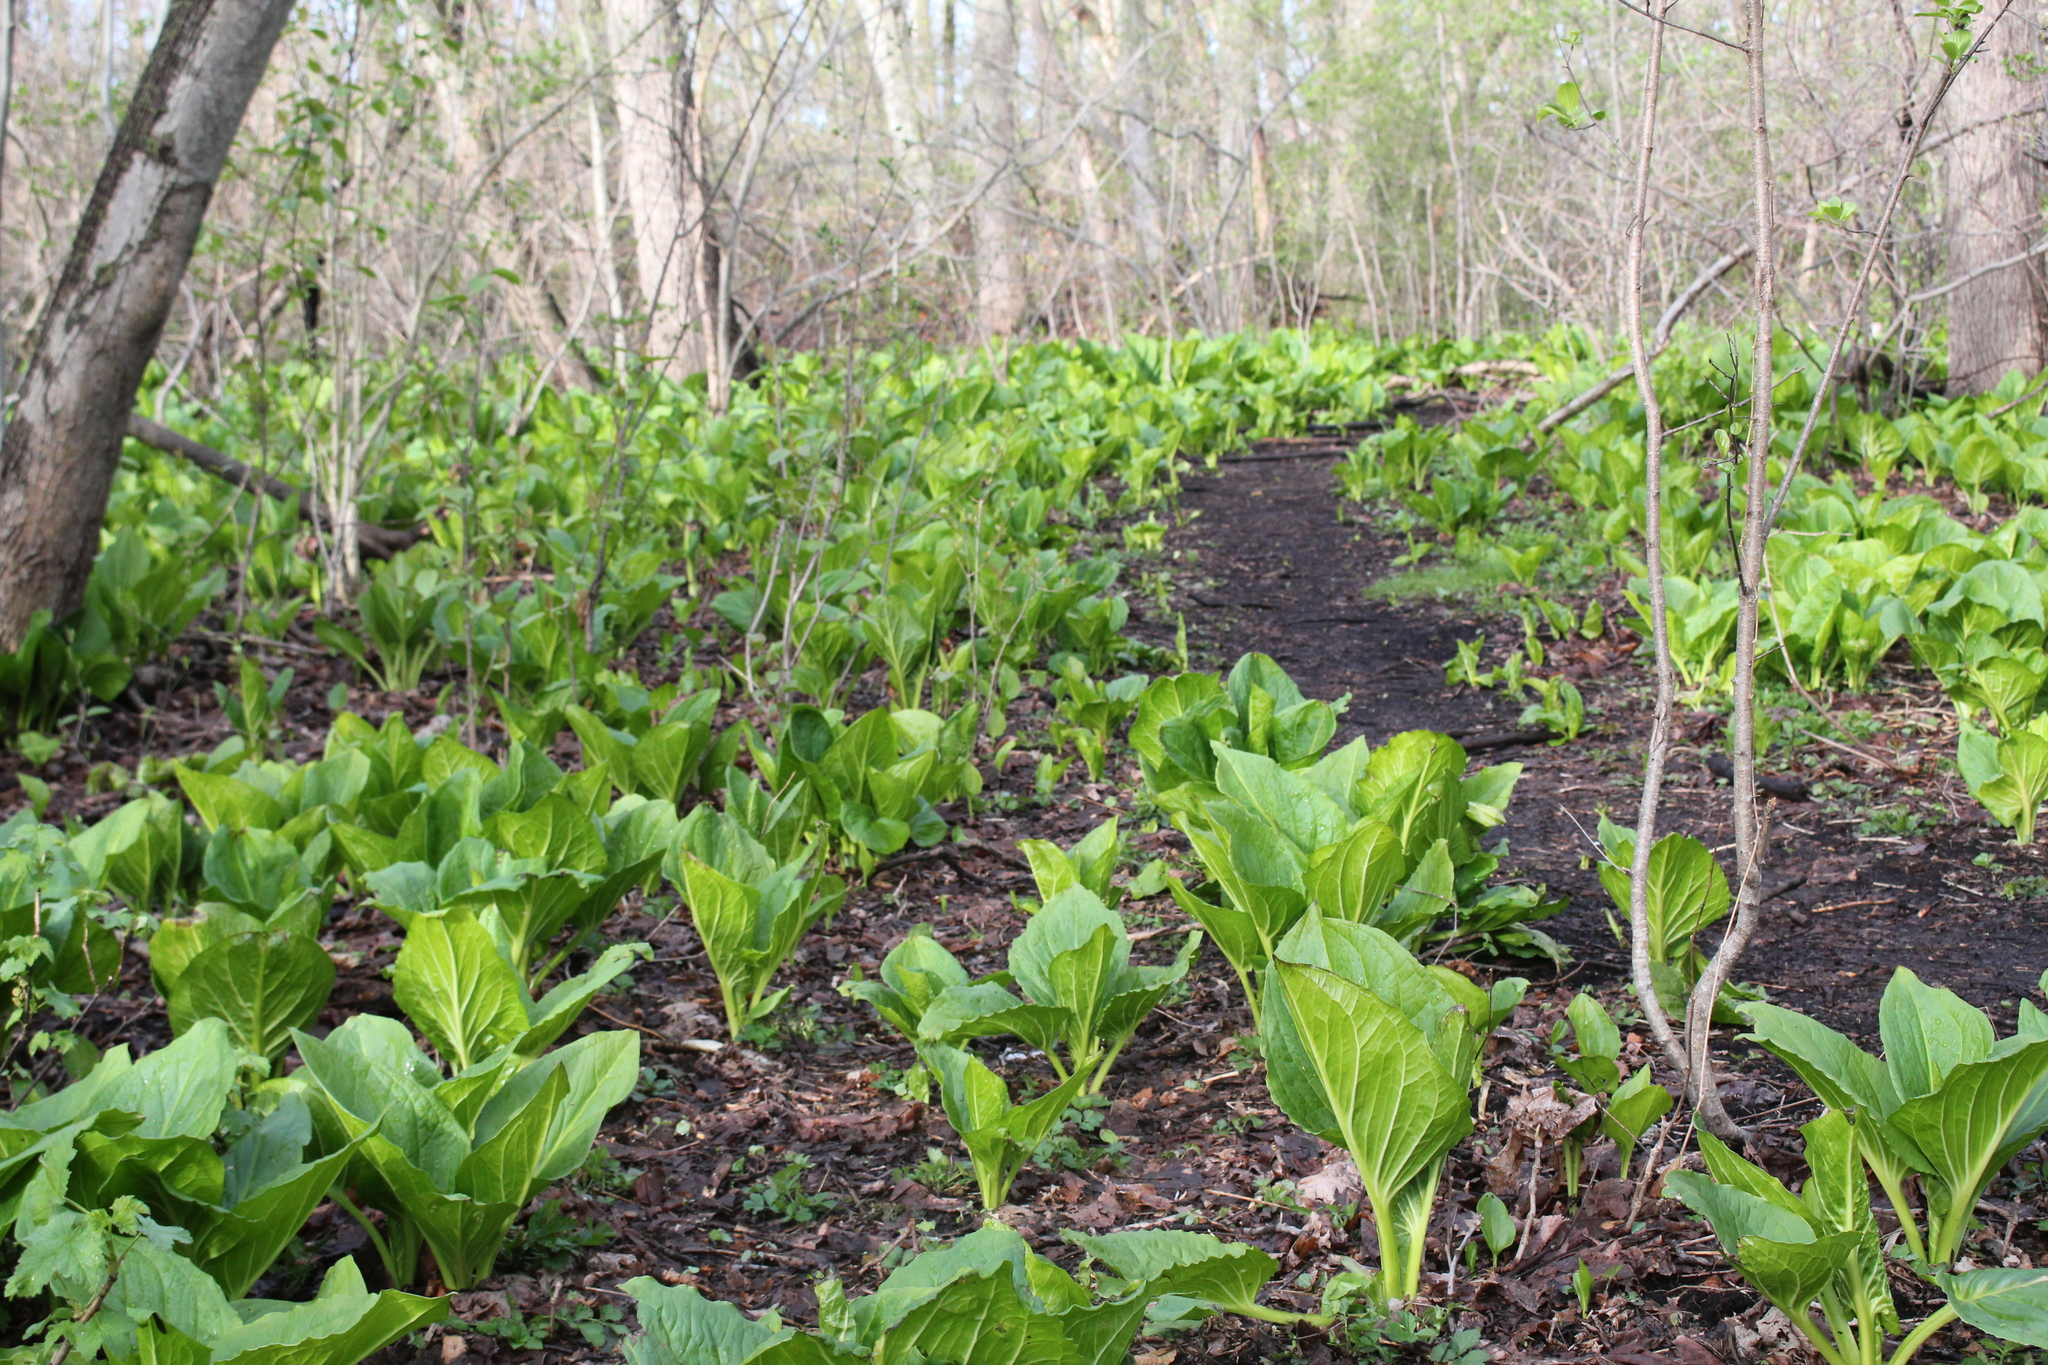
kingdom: Plantae
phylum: Tracheophyta
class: Liliopsida
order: Alismatales
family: Araceae
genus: Symplocarpus
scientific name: Symplocarpus foetidus
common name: Eastern skunk cabbage
